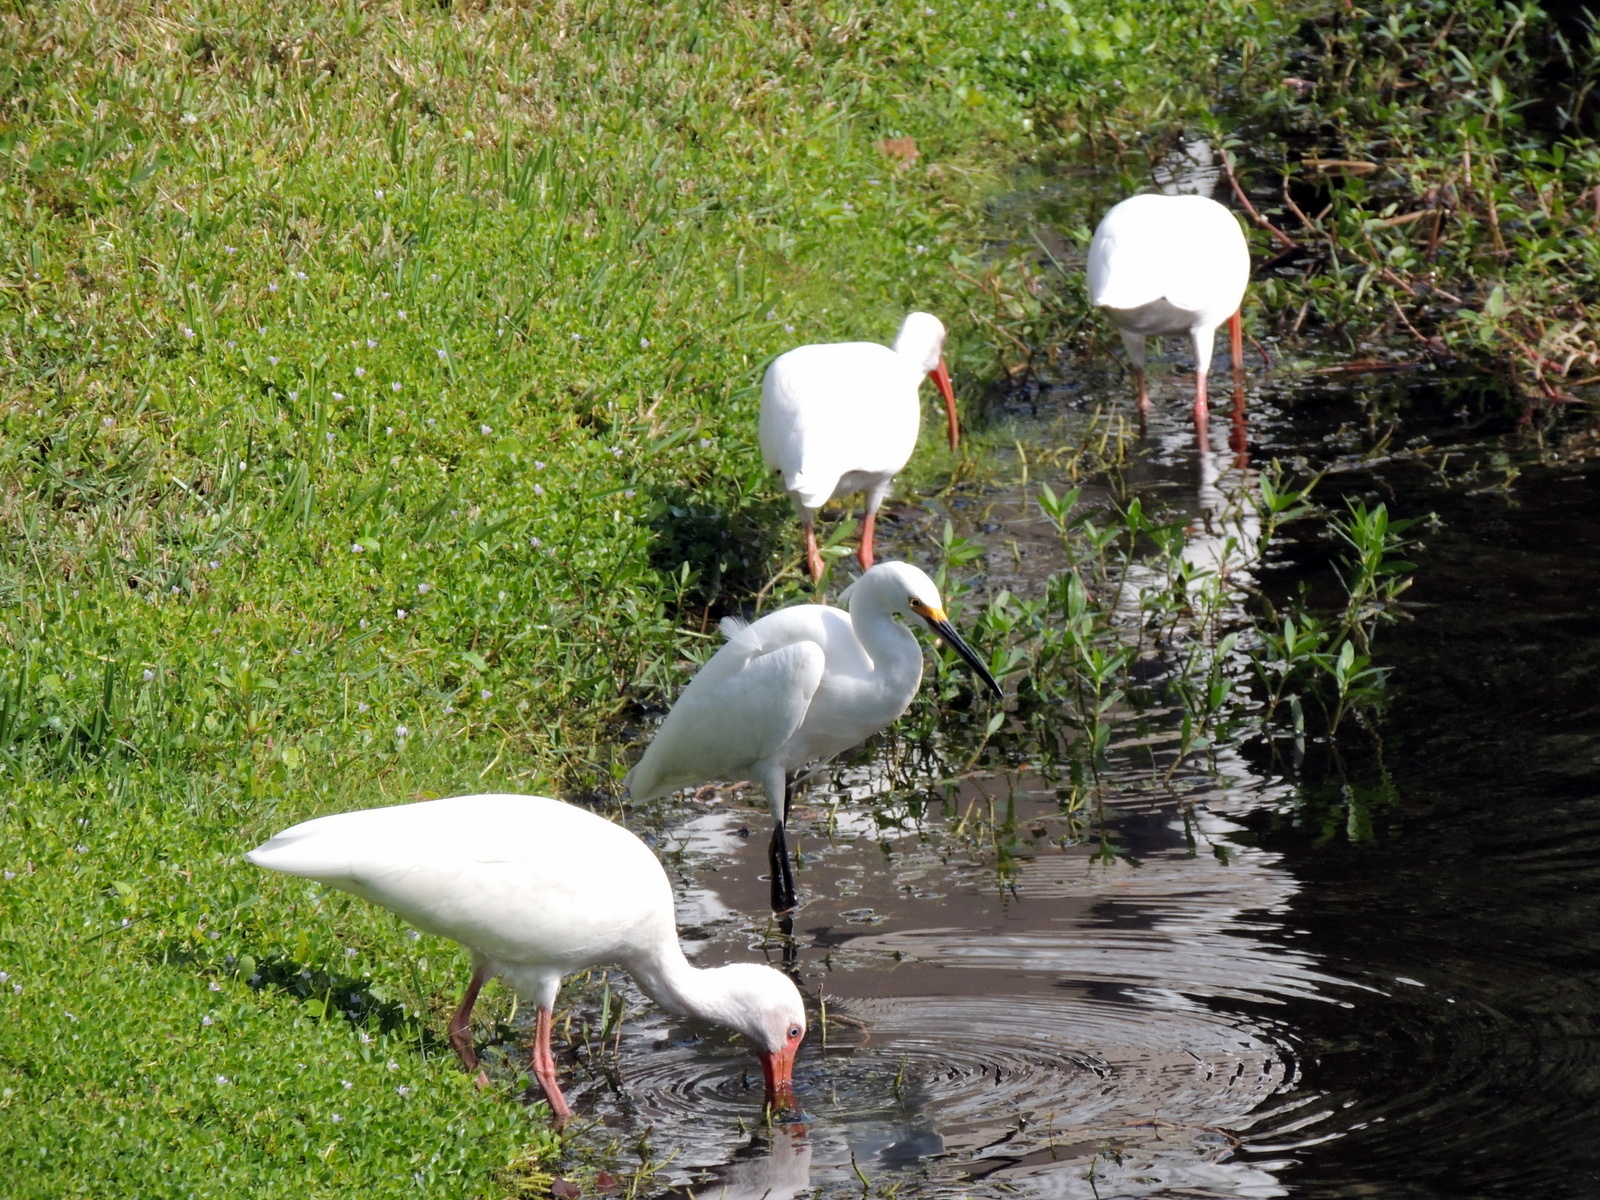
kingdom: Animalia
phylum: Chordata
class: Aves
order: Pelecaniformes
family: Ardeidae
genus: Egretta
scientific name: Egretta thula
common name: Snowy egret
